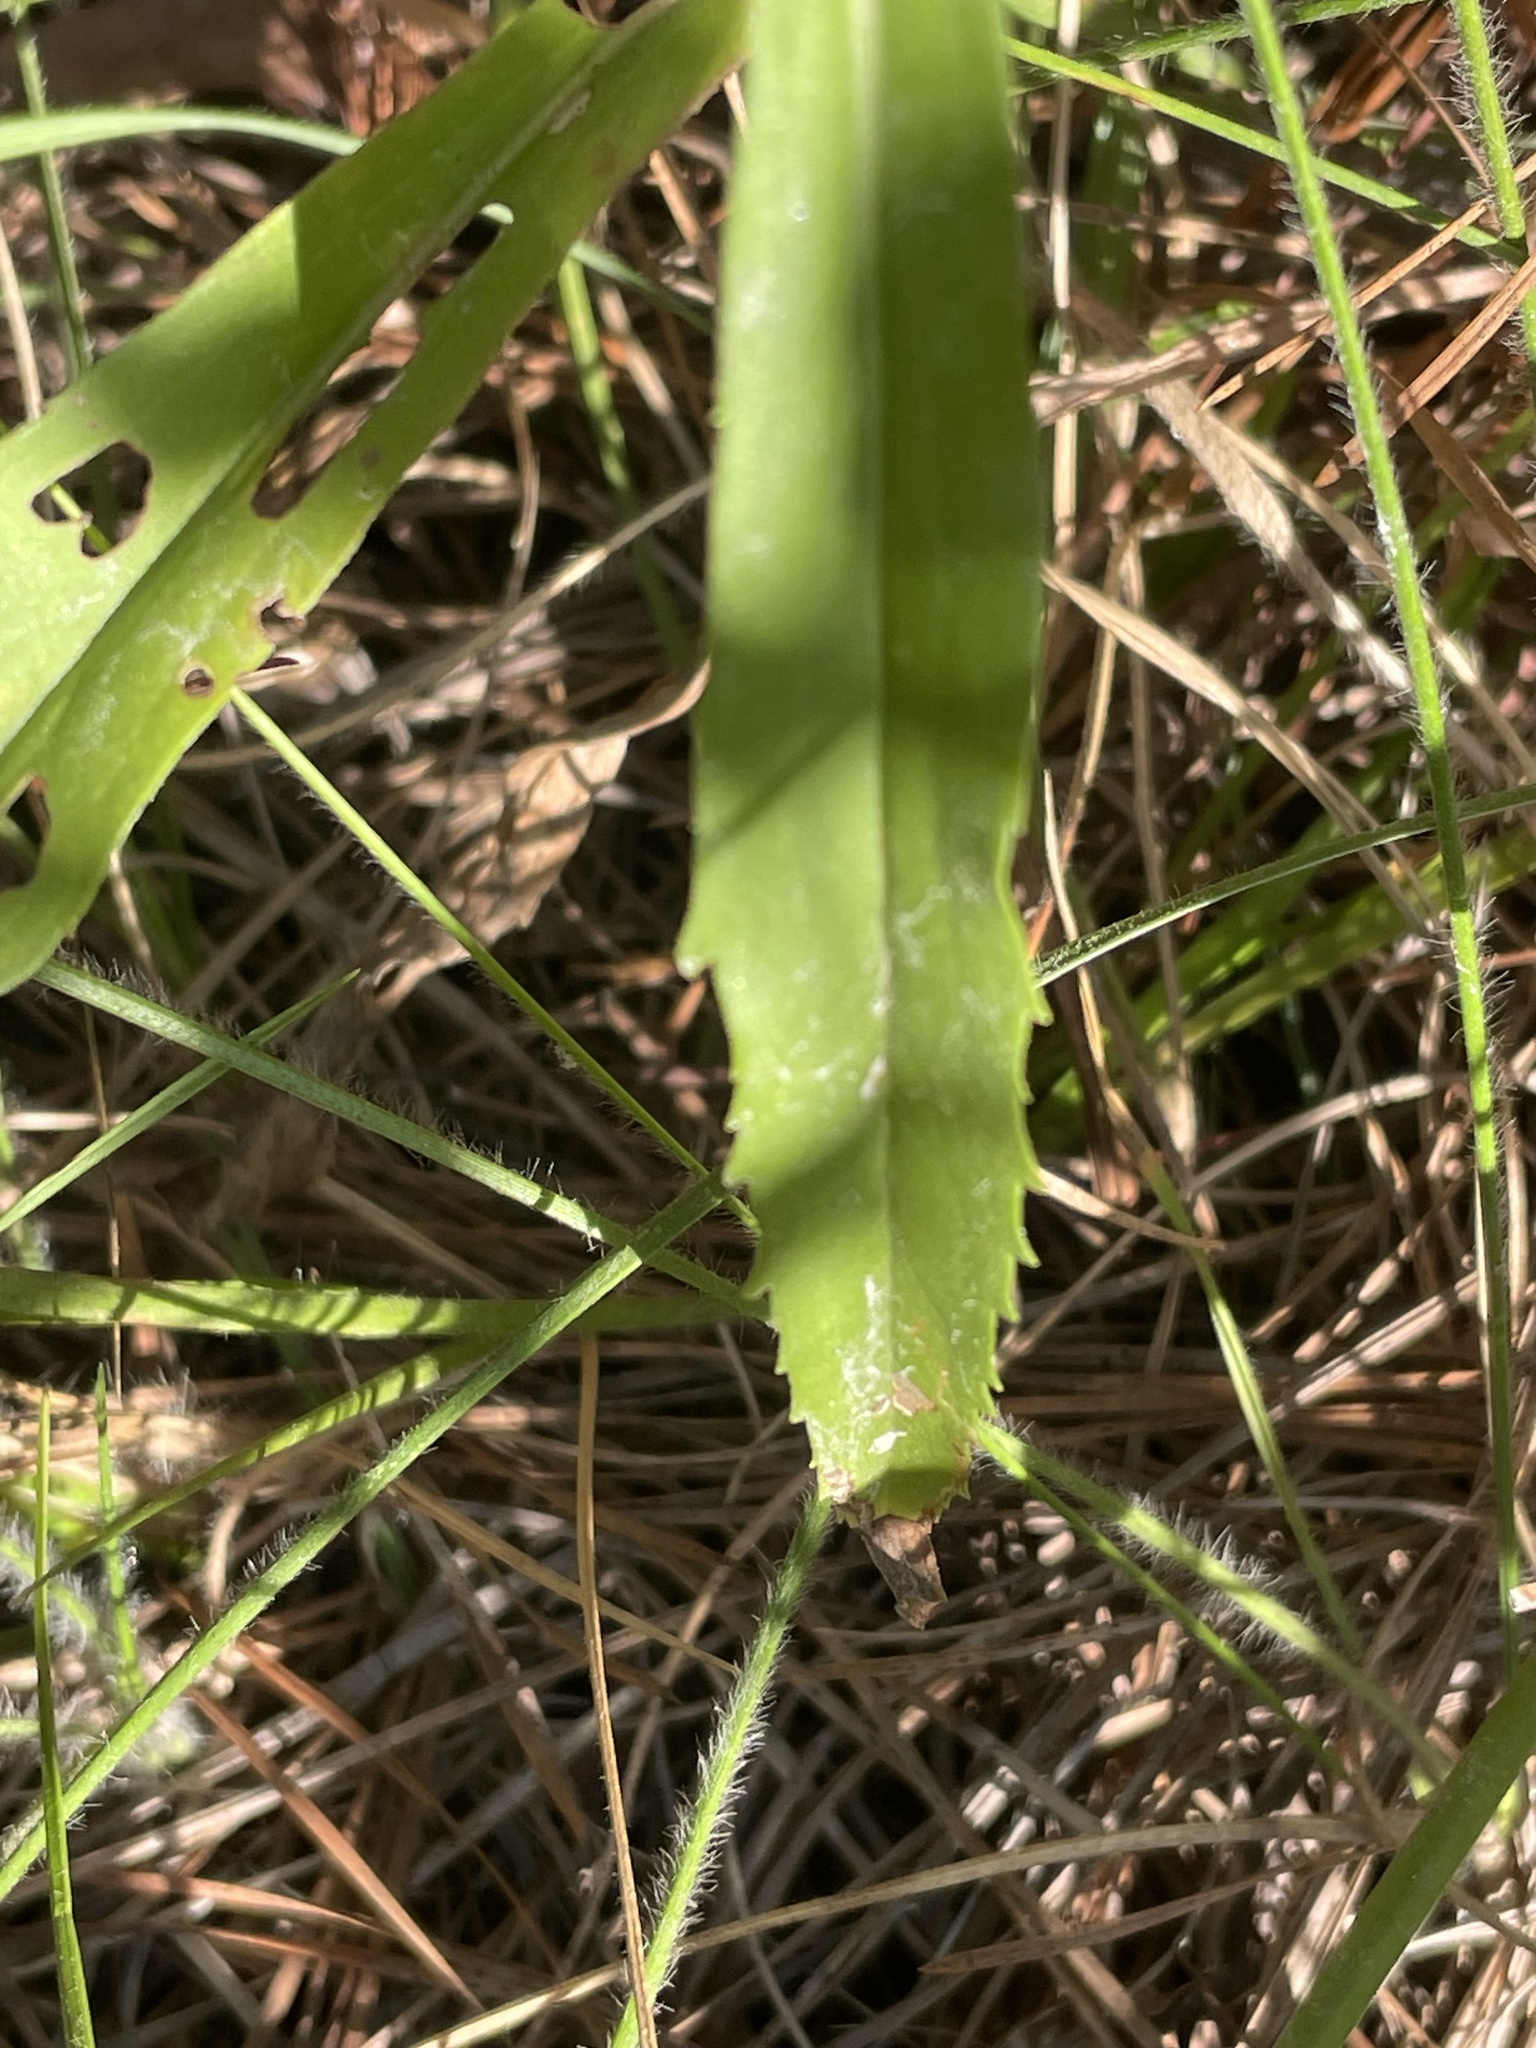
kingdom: Plantae
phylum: Tracheophyta
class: Magnoliopsida
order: Asterales
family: Asteraceae
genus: Solidago
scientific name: Solidago pinetorum
